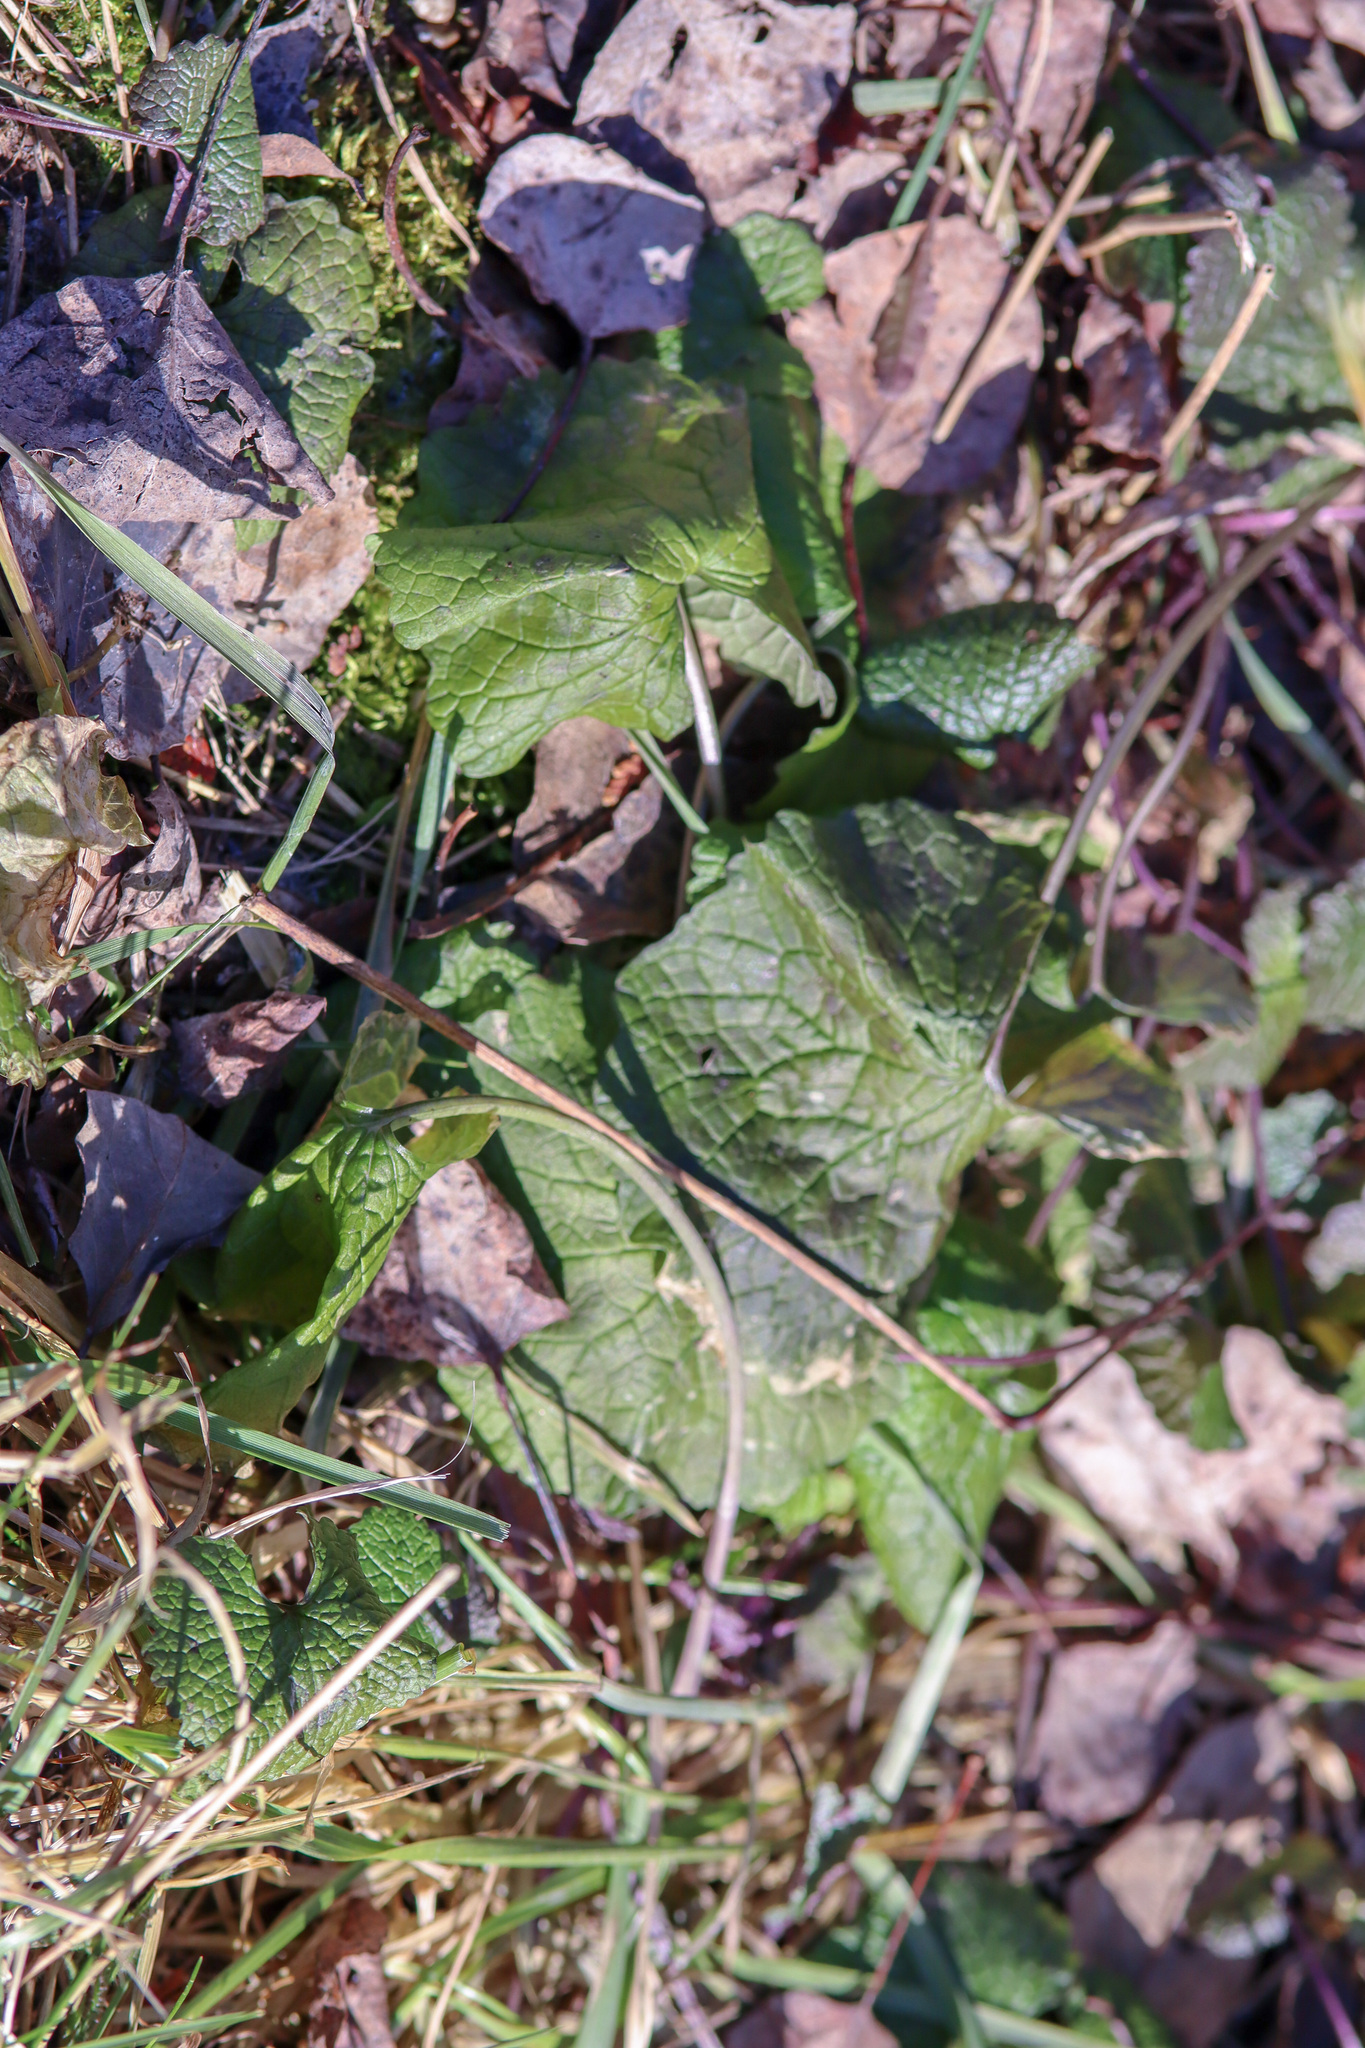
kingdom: Plantae
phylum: Tracheophyta
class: Magnoliopsida
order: Brassicales
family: Brassicaceae
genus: Alliaria
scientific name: Alliaria petiolata
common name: Garlic mustard
